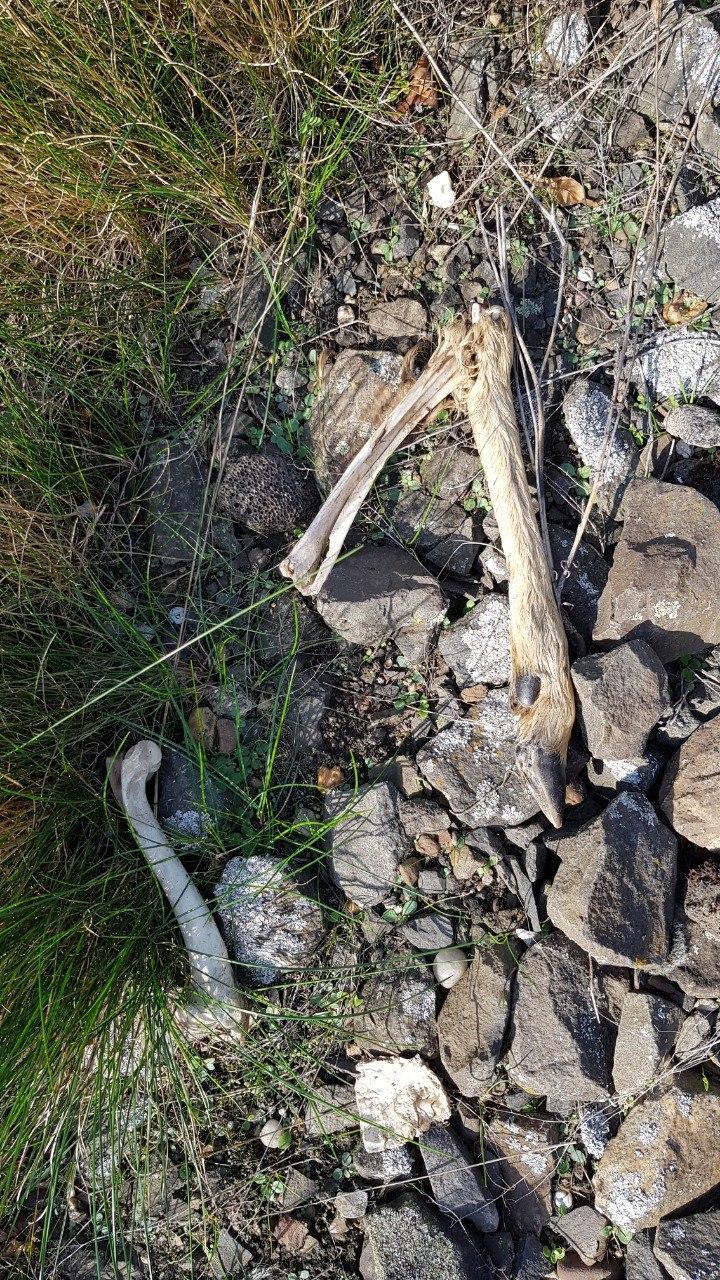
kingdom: Animalia
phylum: Chordata
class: Mammalia
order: Artiodactyla
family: Cervidae
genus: Capreolus
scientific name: Capreolus capreolus
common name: Western roe deer
